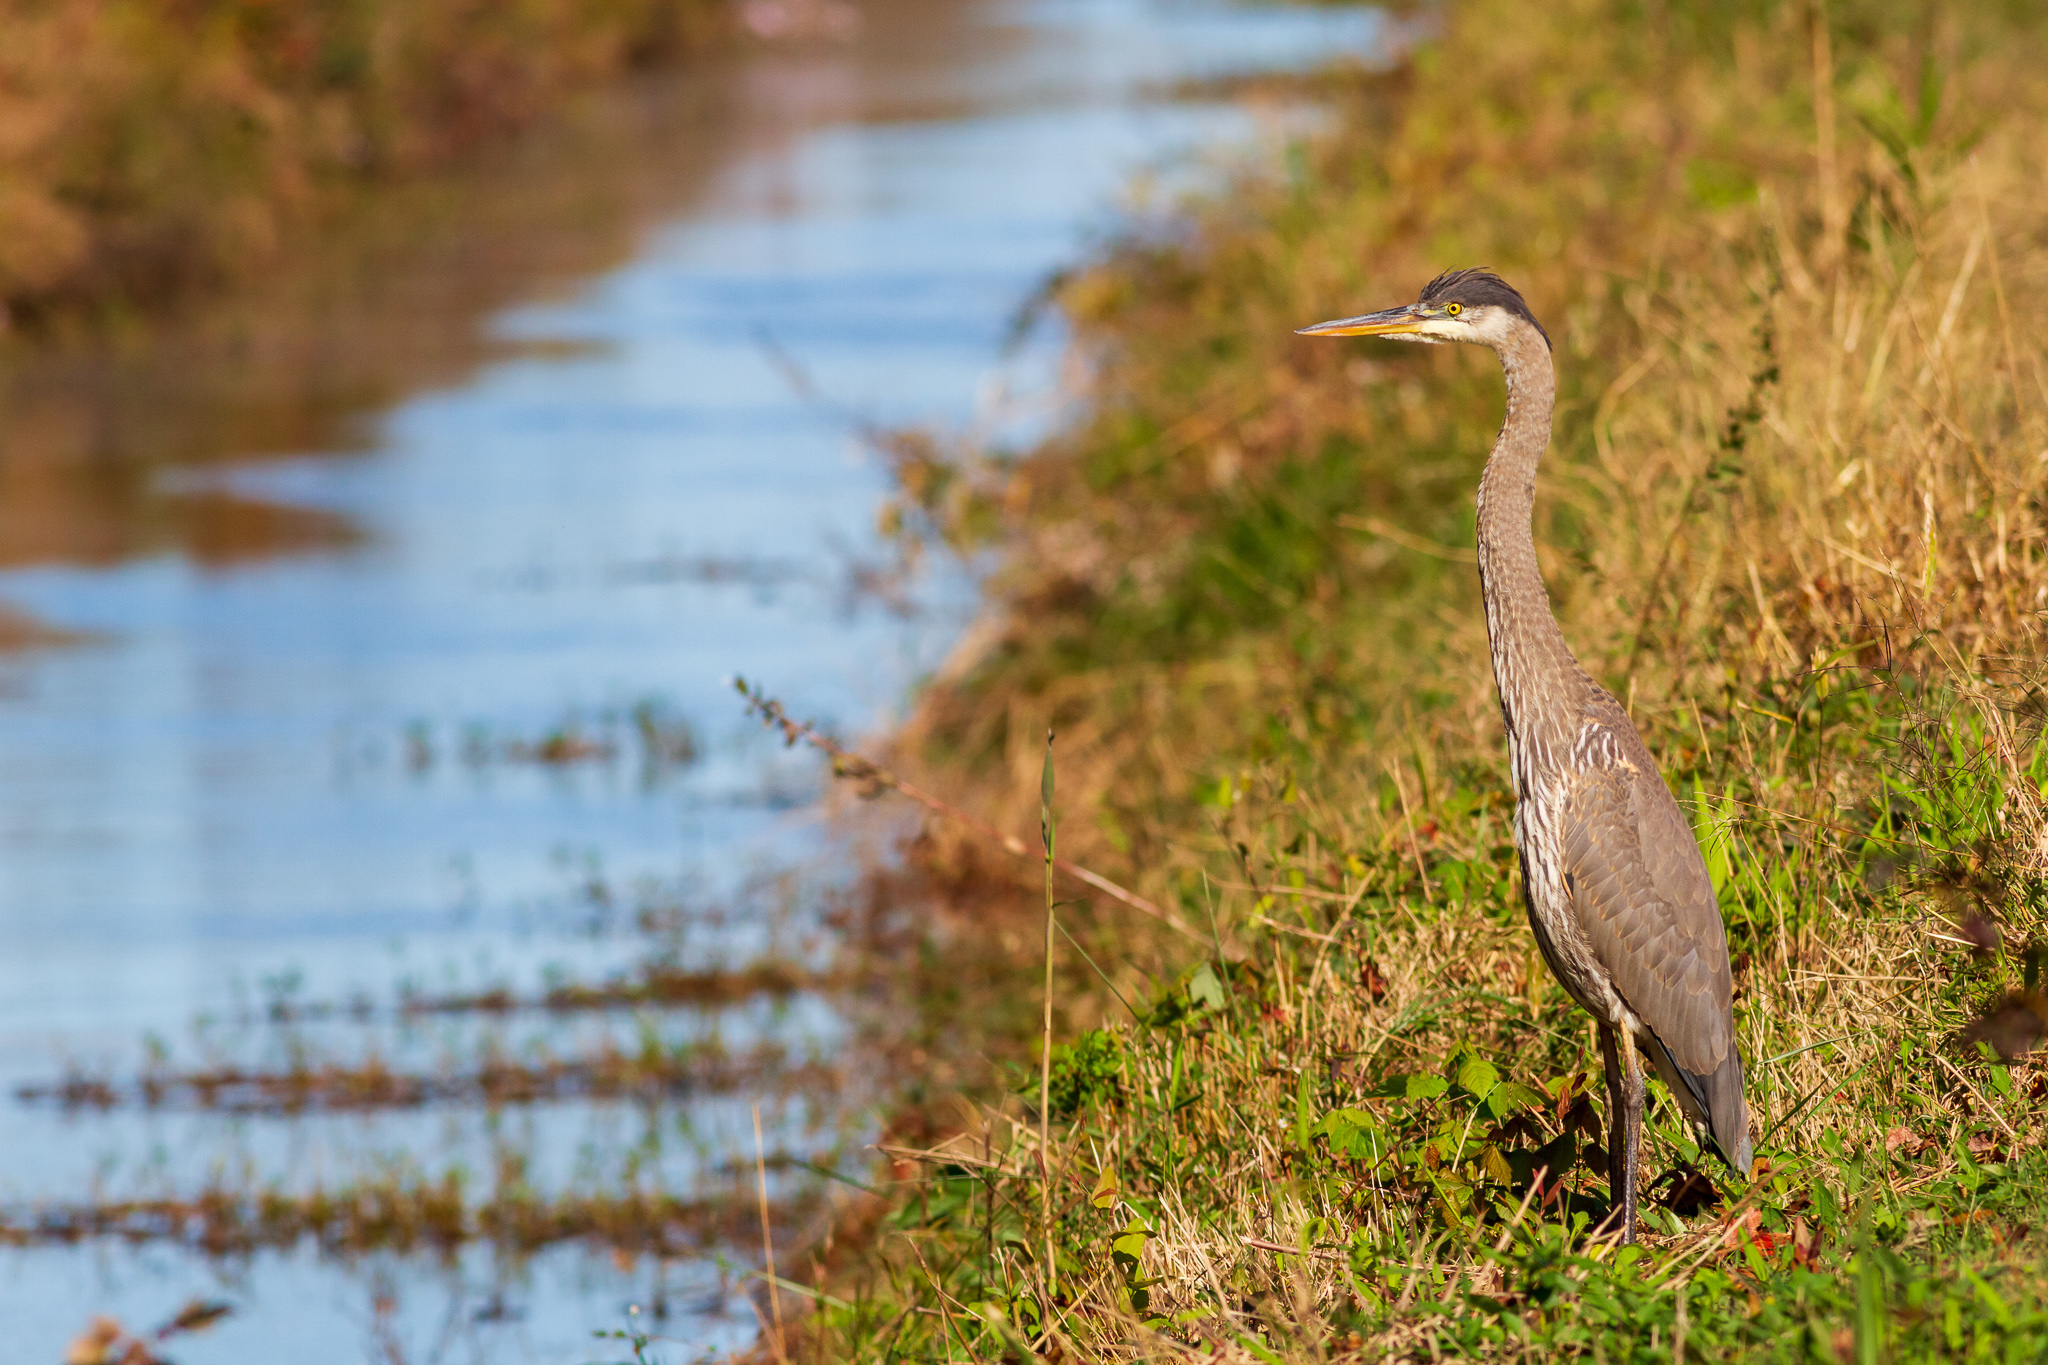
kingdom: Animalia
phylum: Chordata
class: Aves
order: Pelecaniformes
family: Ardeidae
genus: Ardea
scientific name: Ardea herodias
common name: Great blue heron
